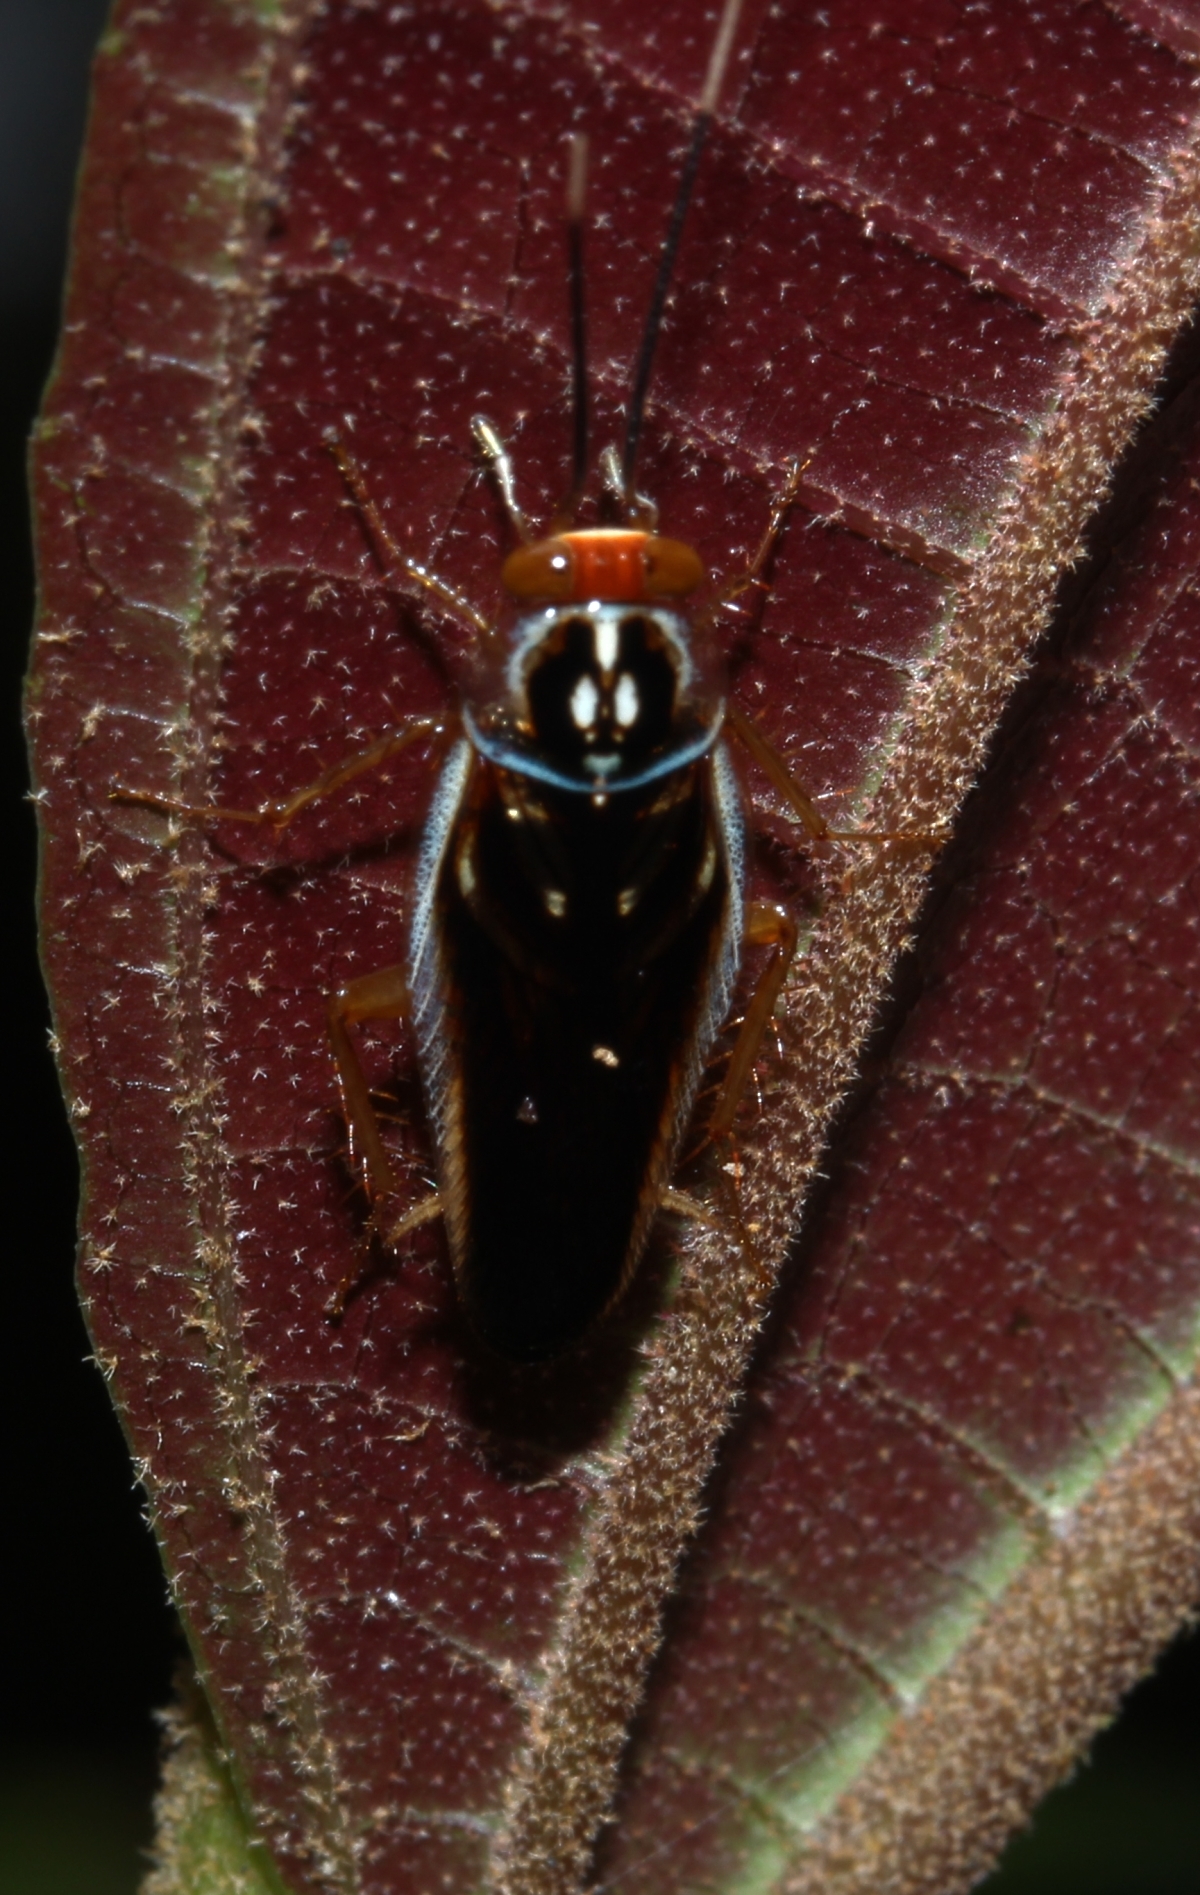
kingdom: Animalia
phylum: Arthropoda
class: Insecta
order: Blattodea
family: Ectobiidae
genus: Euphyllodromia
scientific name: Euphyllodromia boliviensis
